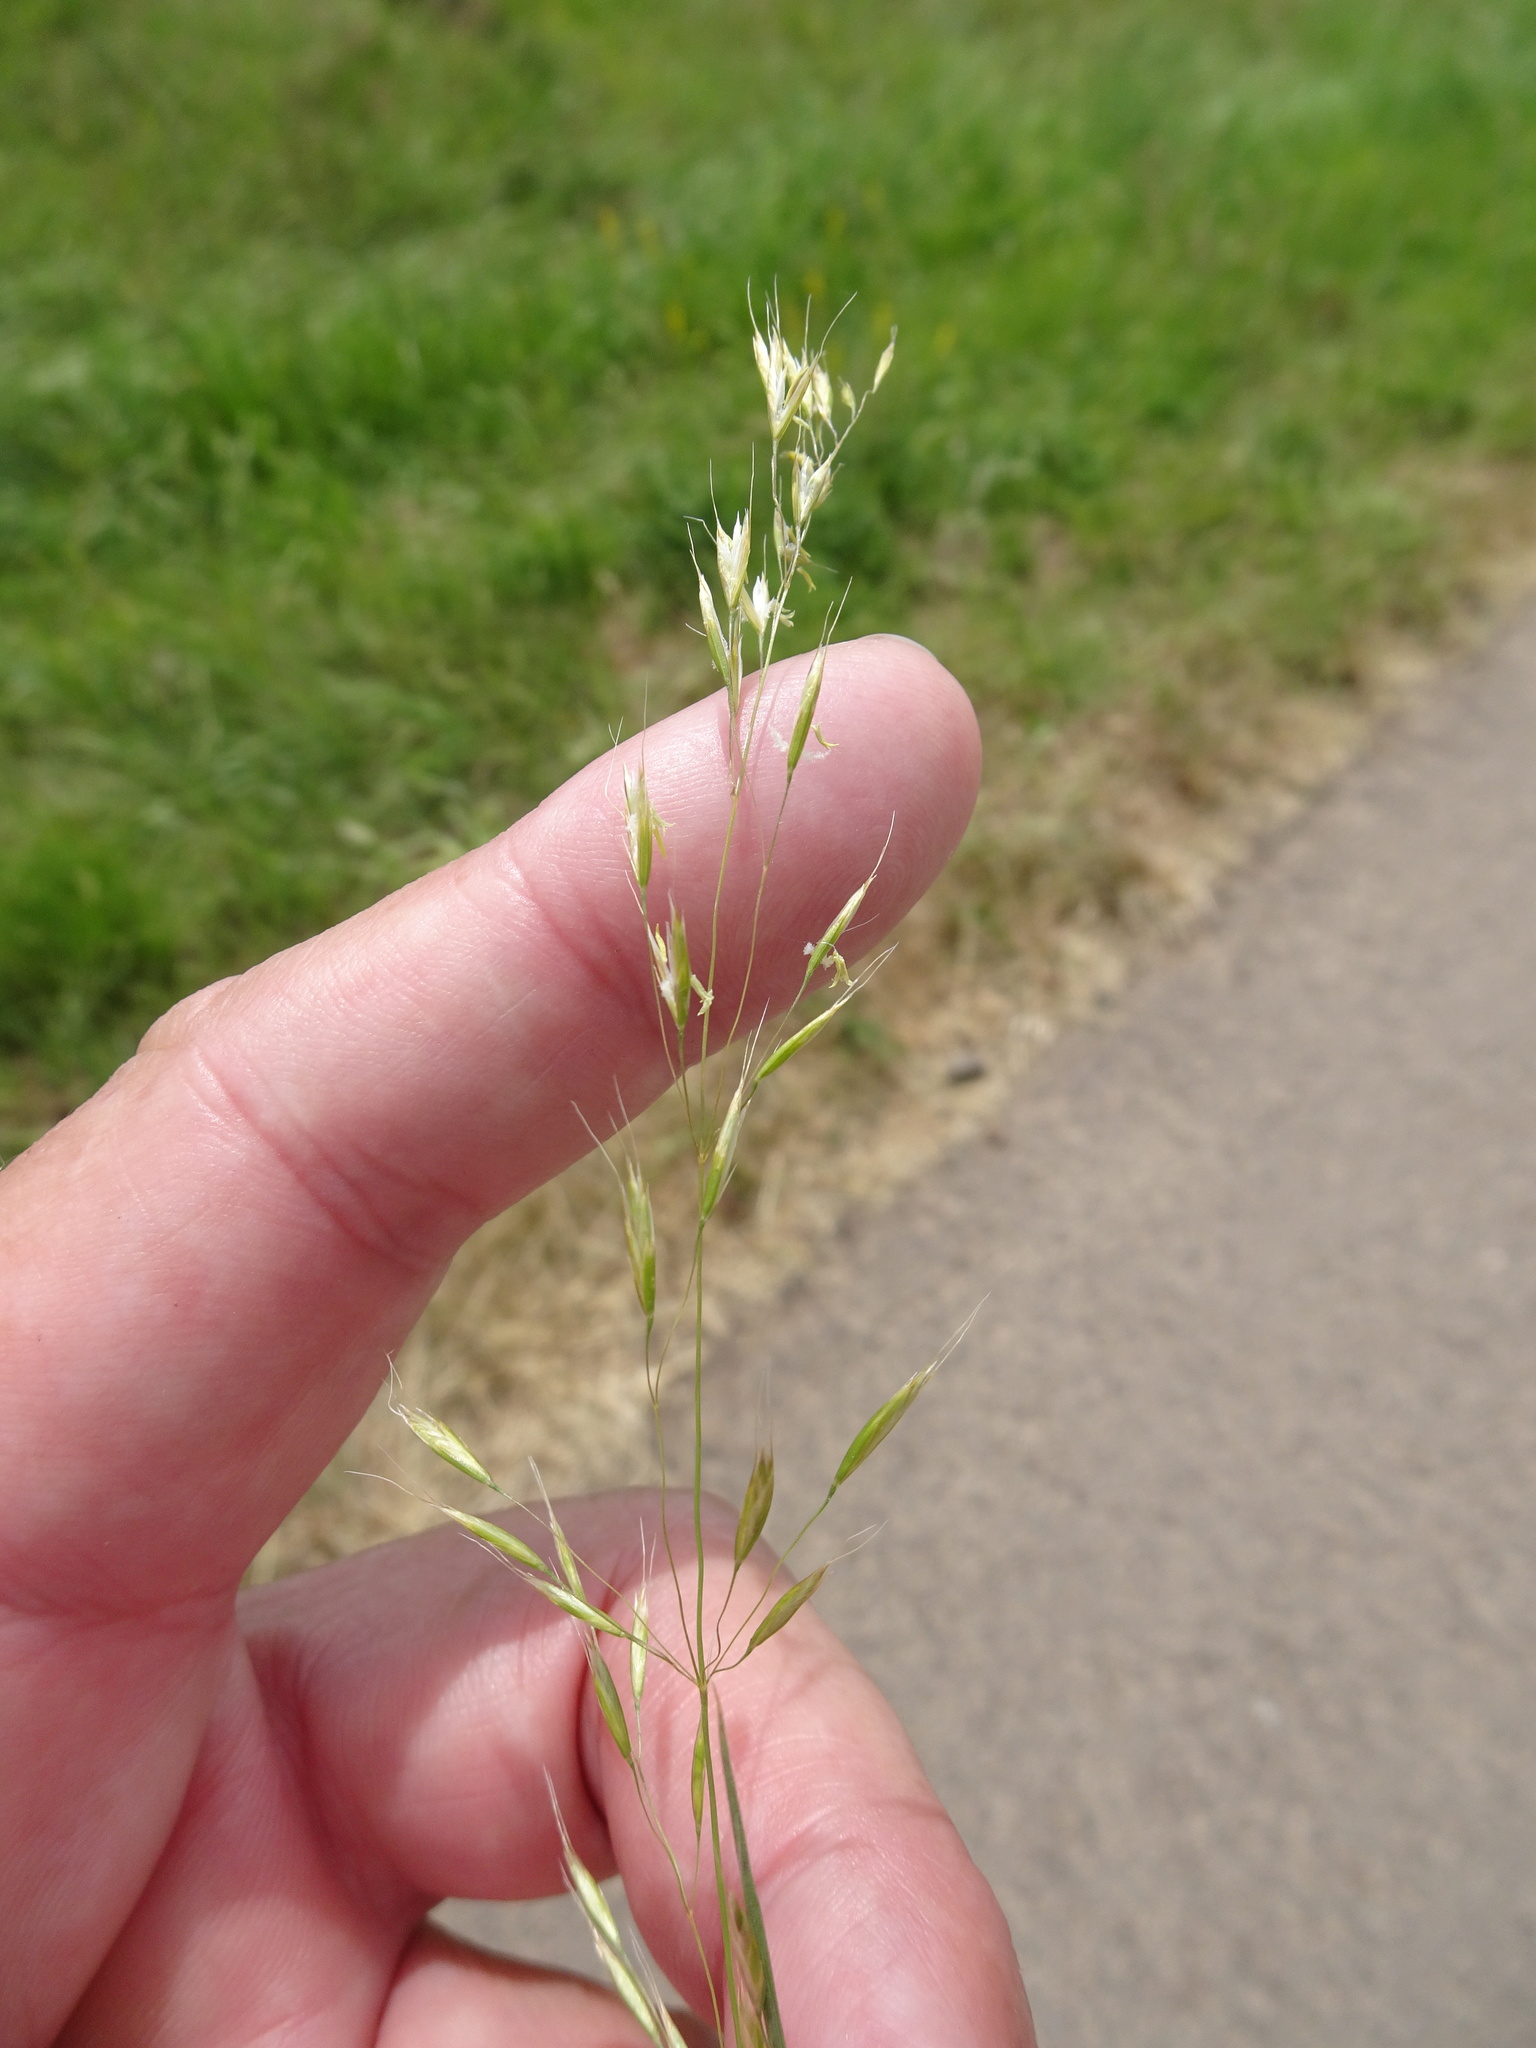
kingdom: Plantae
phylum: Tracheophyta
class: Liliopsida
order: Poales
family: Poaceae
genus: Trisetum
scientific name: Trisetum flavescens
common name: Yellow oat-grass
